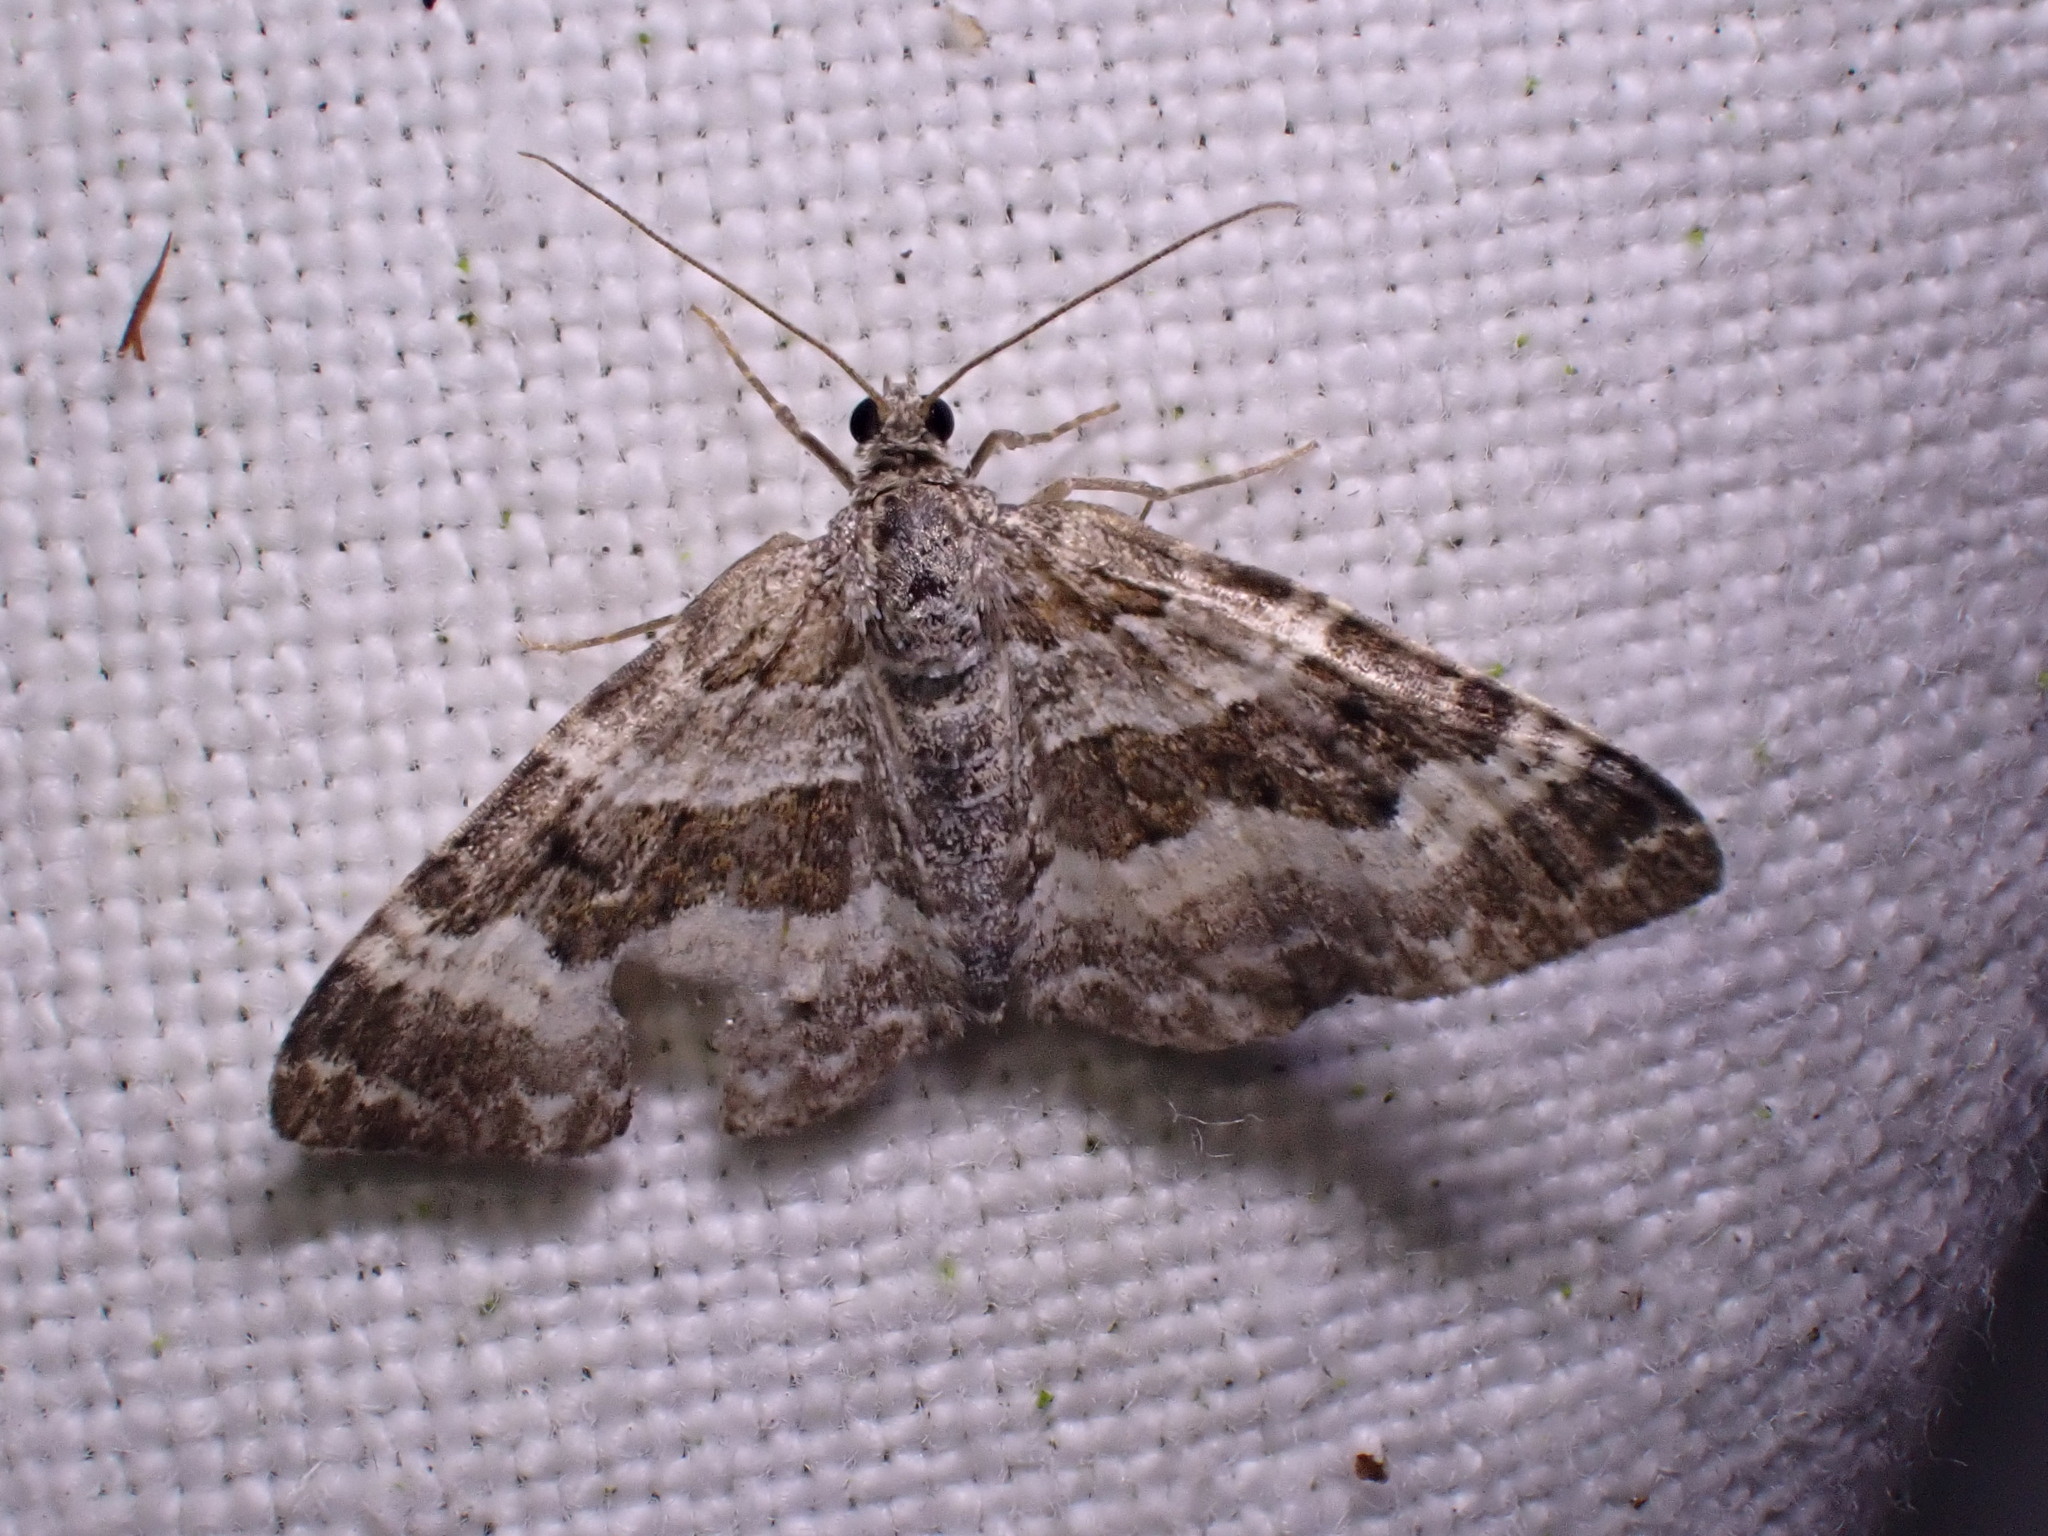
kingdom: Animalia
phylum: Arthropoda
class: Insecta
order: Lepidoptera
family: Geometridae
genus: Epirrhoe
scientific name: Epirrhoe alternata
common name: Common carpet
